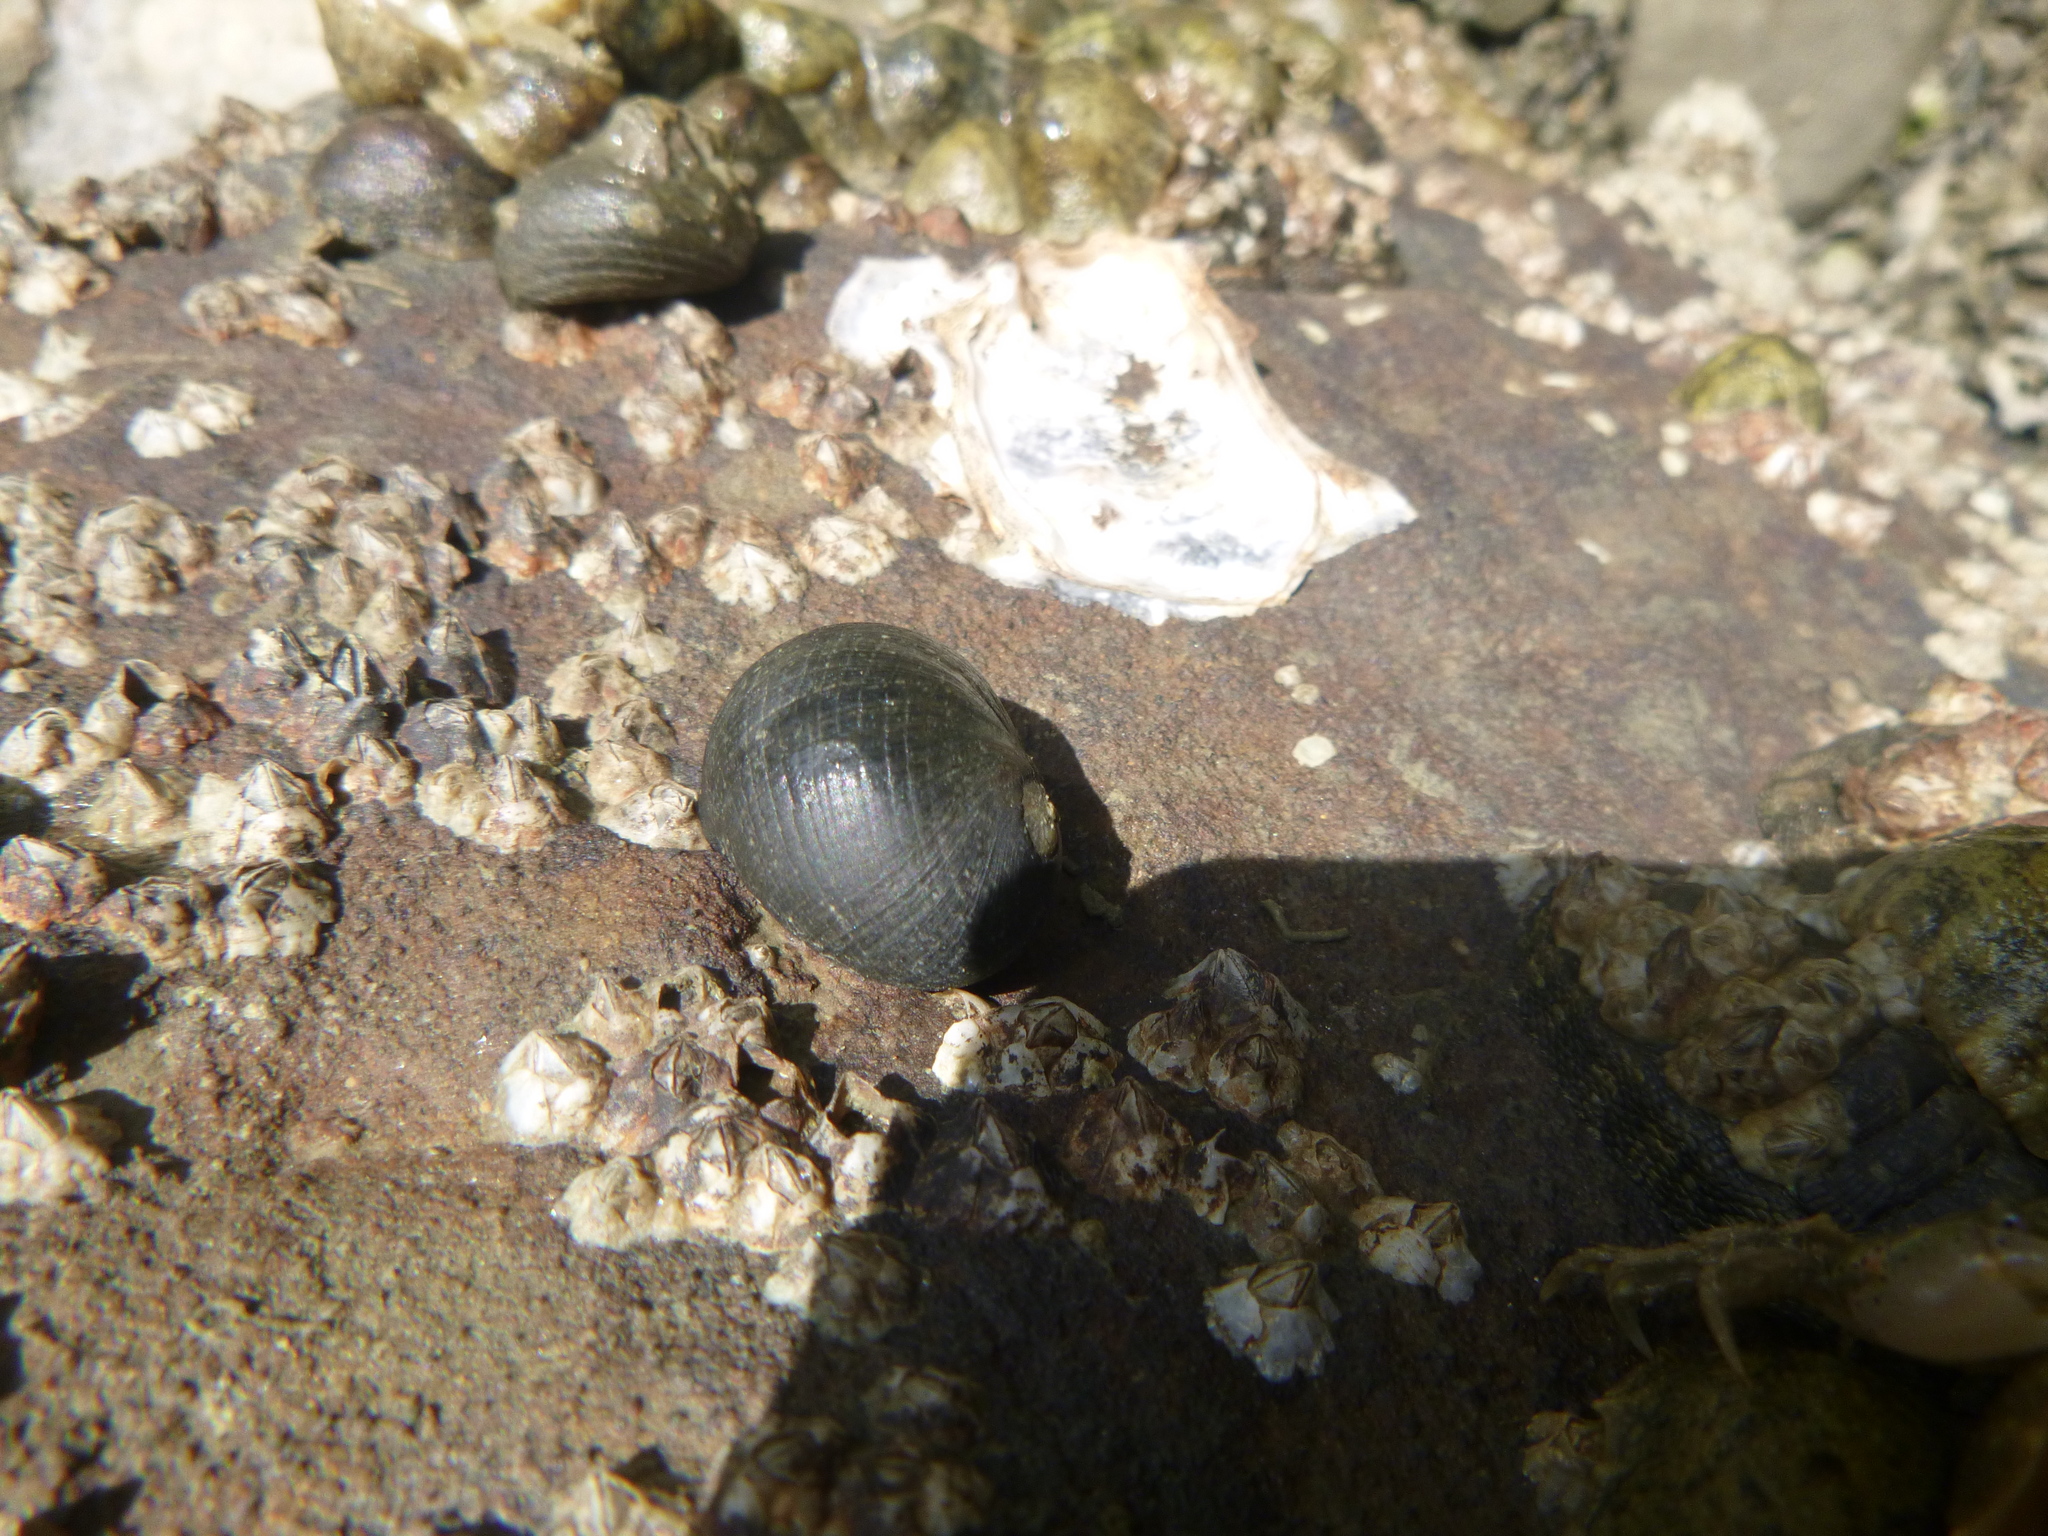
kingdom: Animalia
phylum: Mollusca
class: Gastropoda
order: Cycloneritida
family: Neritidae
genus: Nerita
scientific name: Nerita melanotragus
